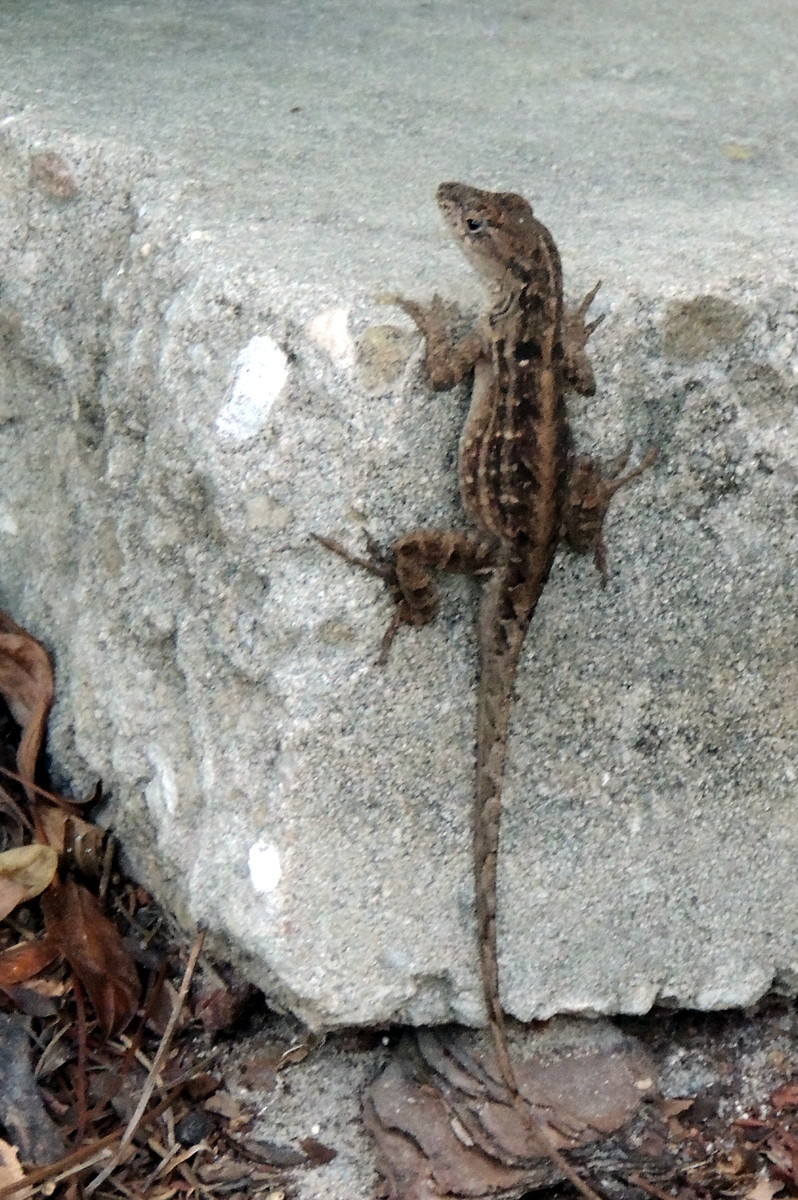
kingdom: Animalia
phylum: Chordata
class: Squamata
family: Dactyloidae
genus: Anolis
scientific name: Anolis sagrei
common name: Brown anole
